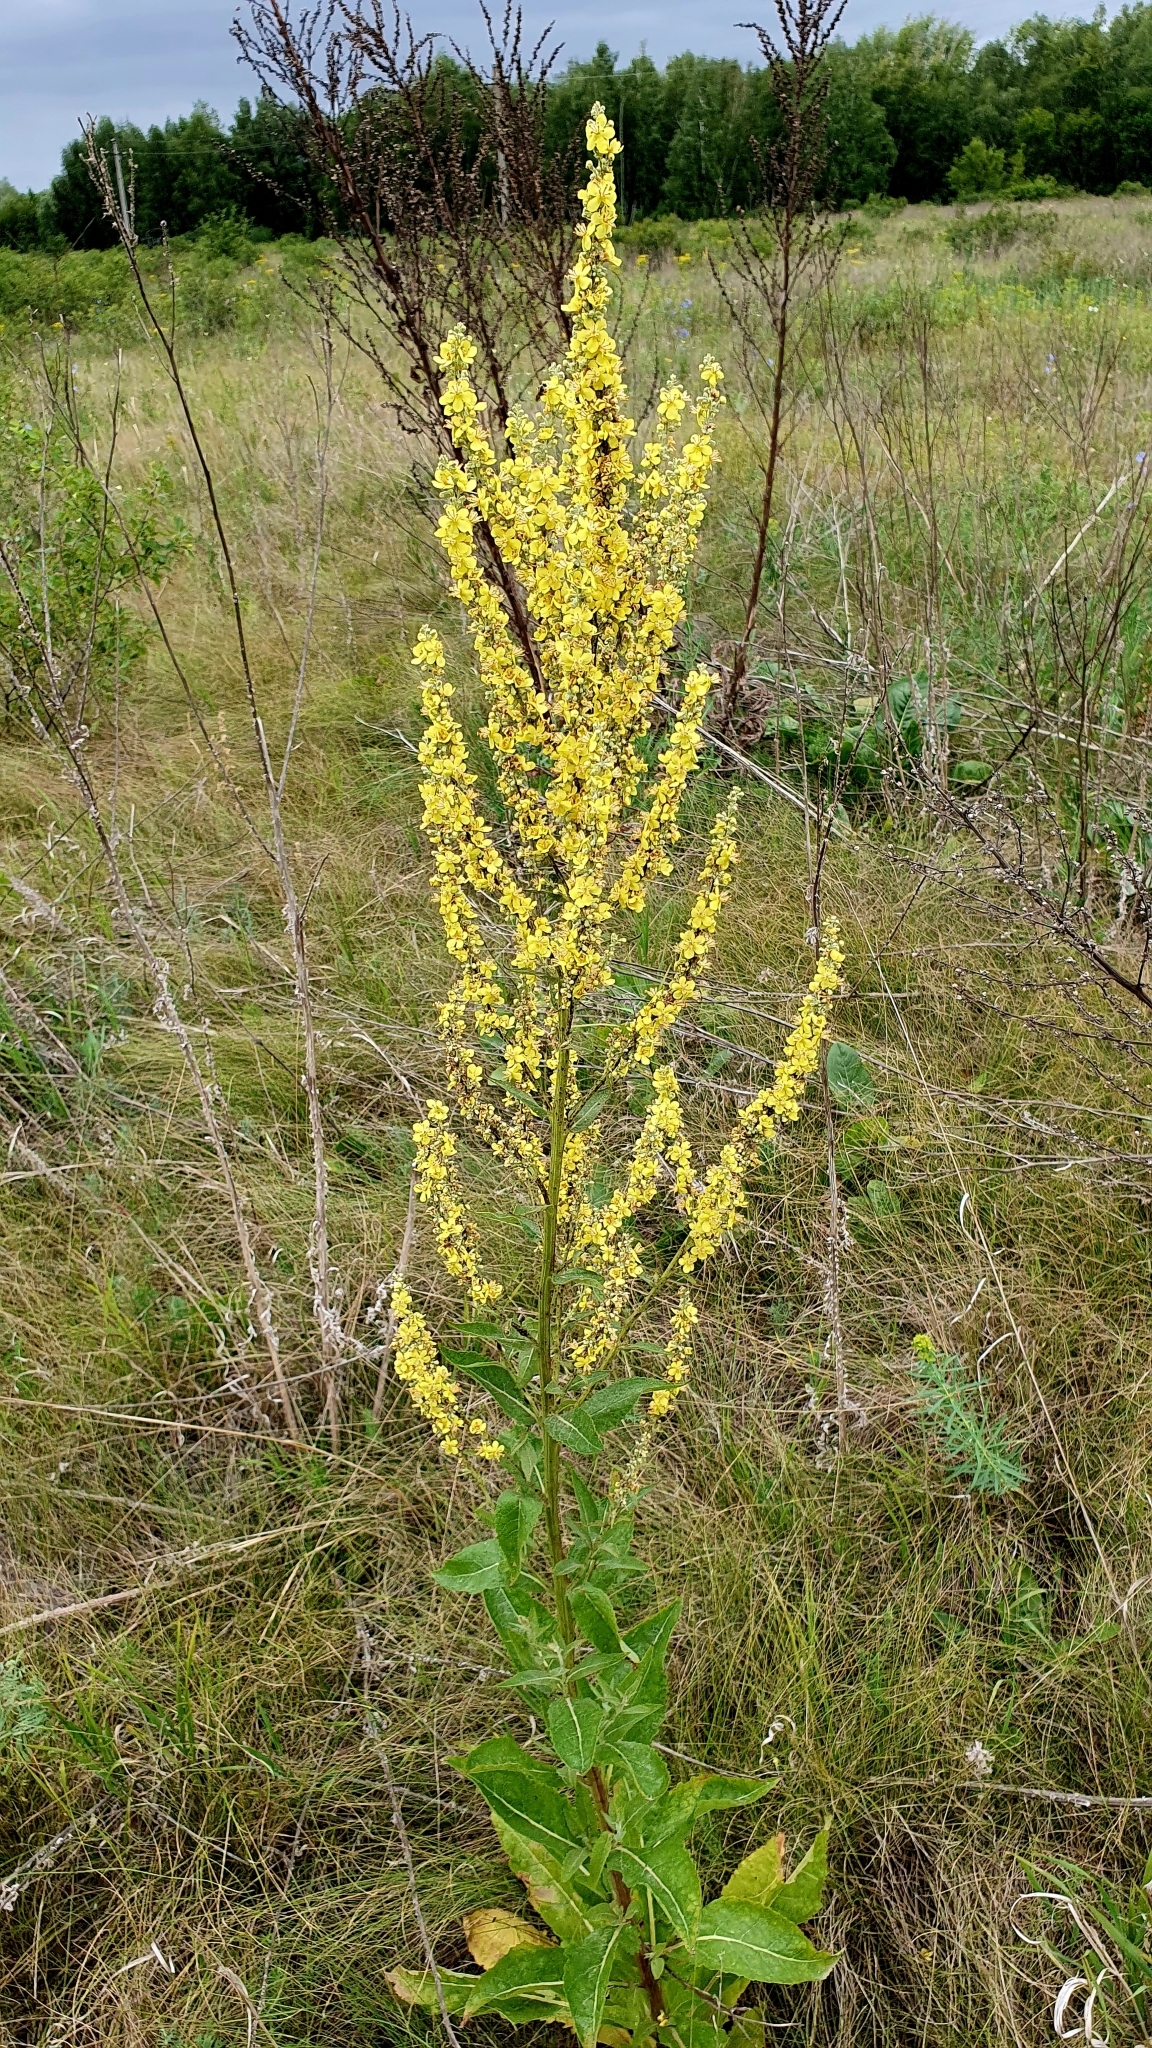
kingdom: Plantae
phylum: Tracheophyta
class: Magnoliopsida
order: Lamiales
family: Scrophulariaceae
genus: Verbascum
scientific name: Verbascum lychnitis
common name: White mullein
